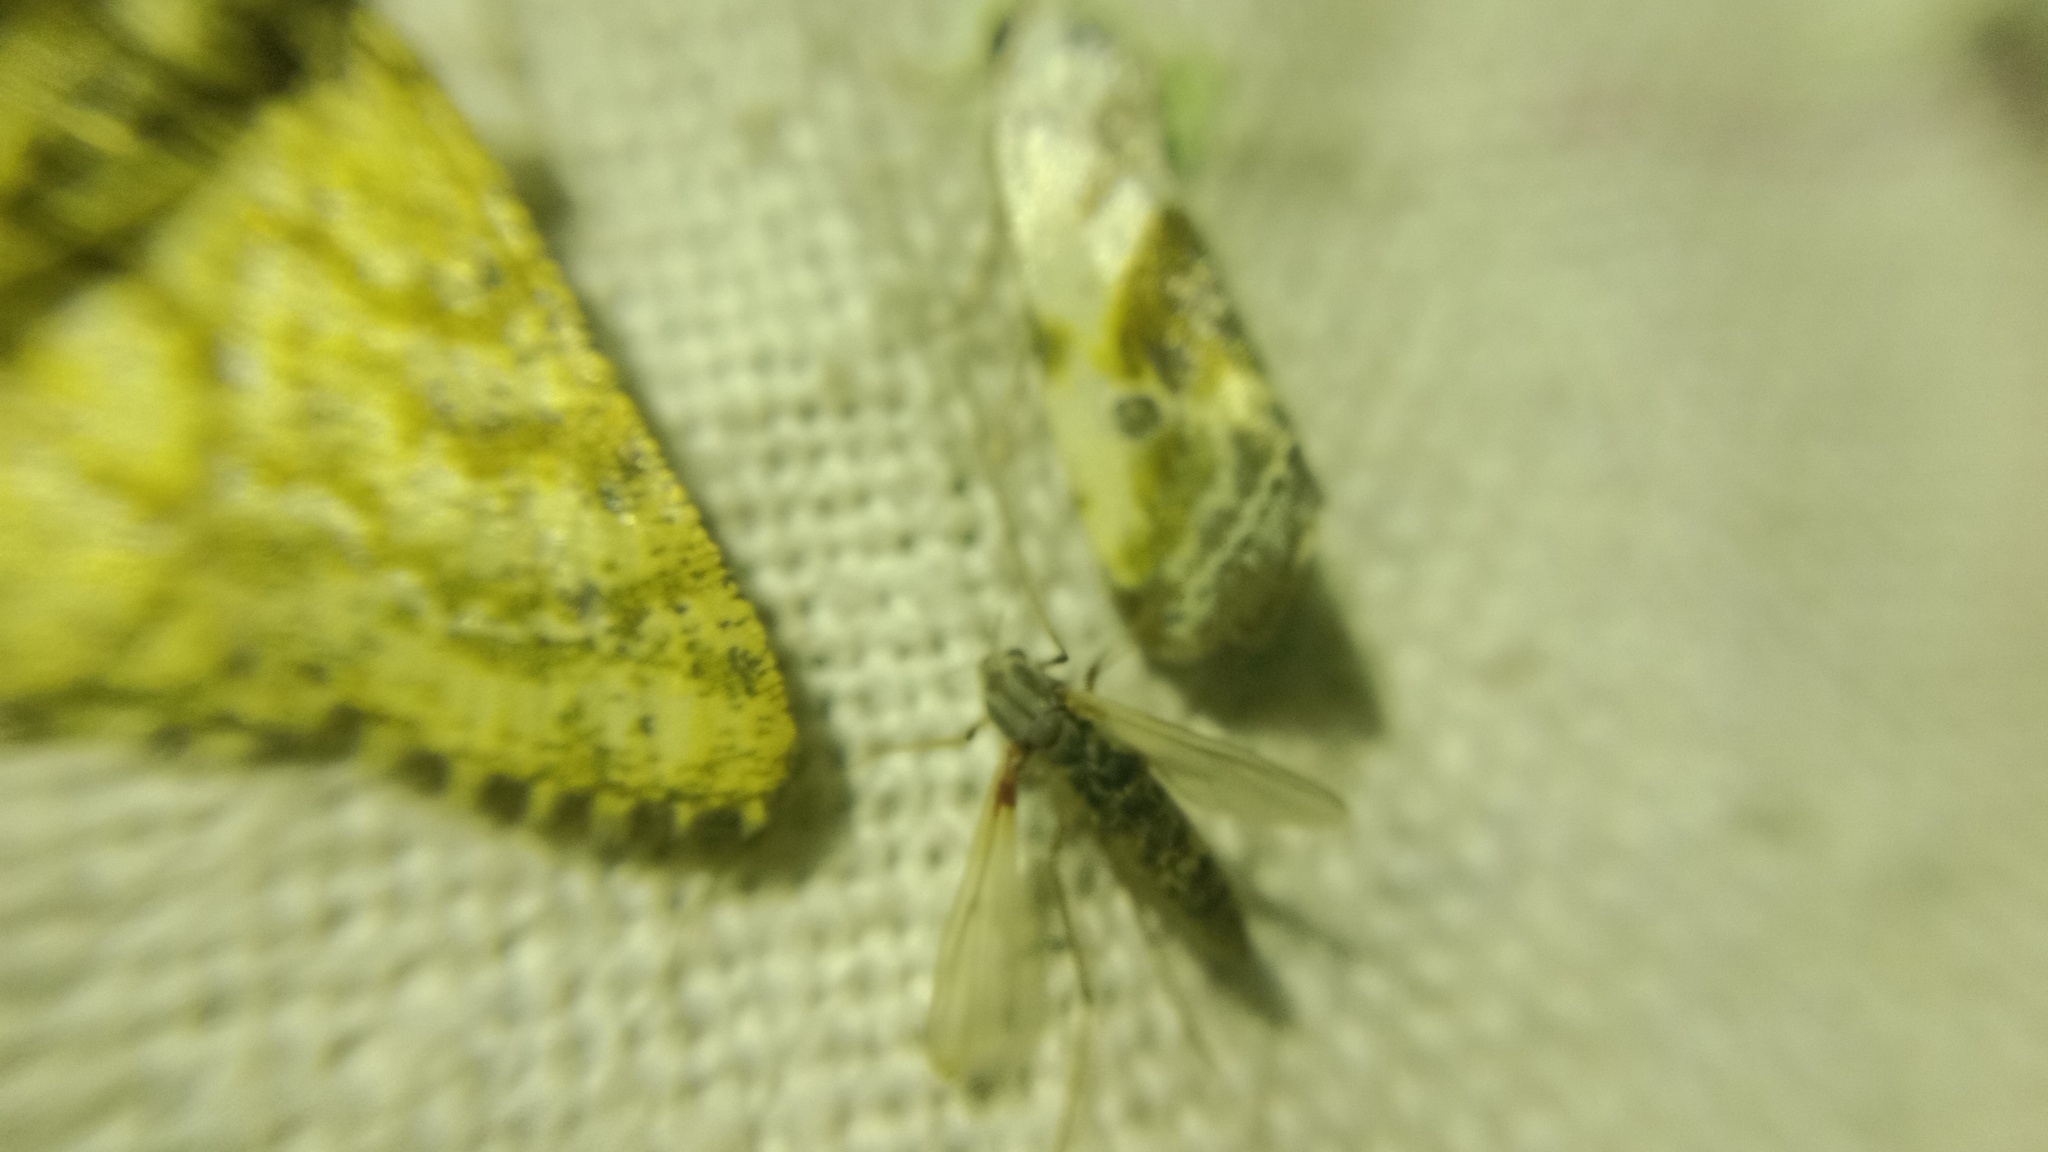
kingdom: Animalia
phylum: Arthropoda
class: Insecta
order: Lepidoptera
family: Noctuidae
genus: Acontia
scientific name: Acontia candefacta
